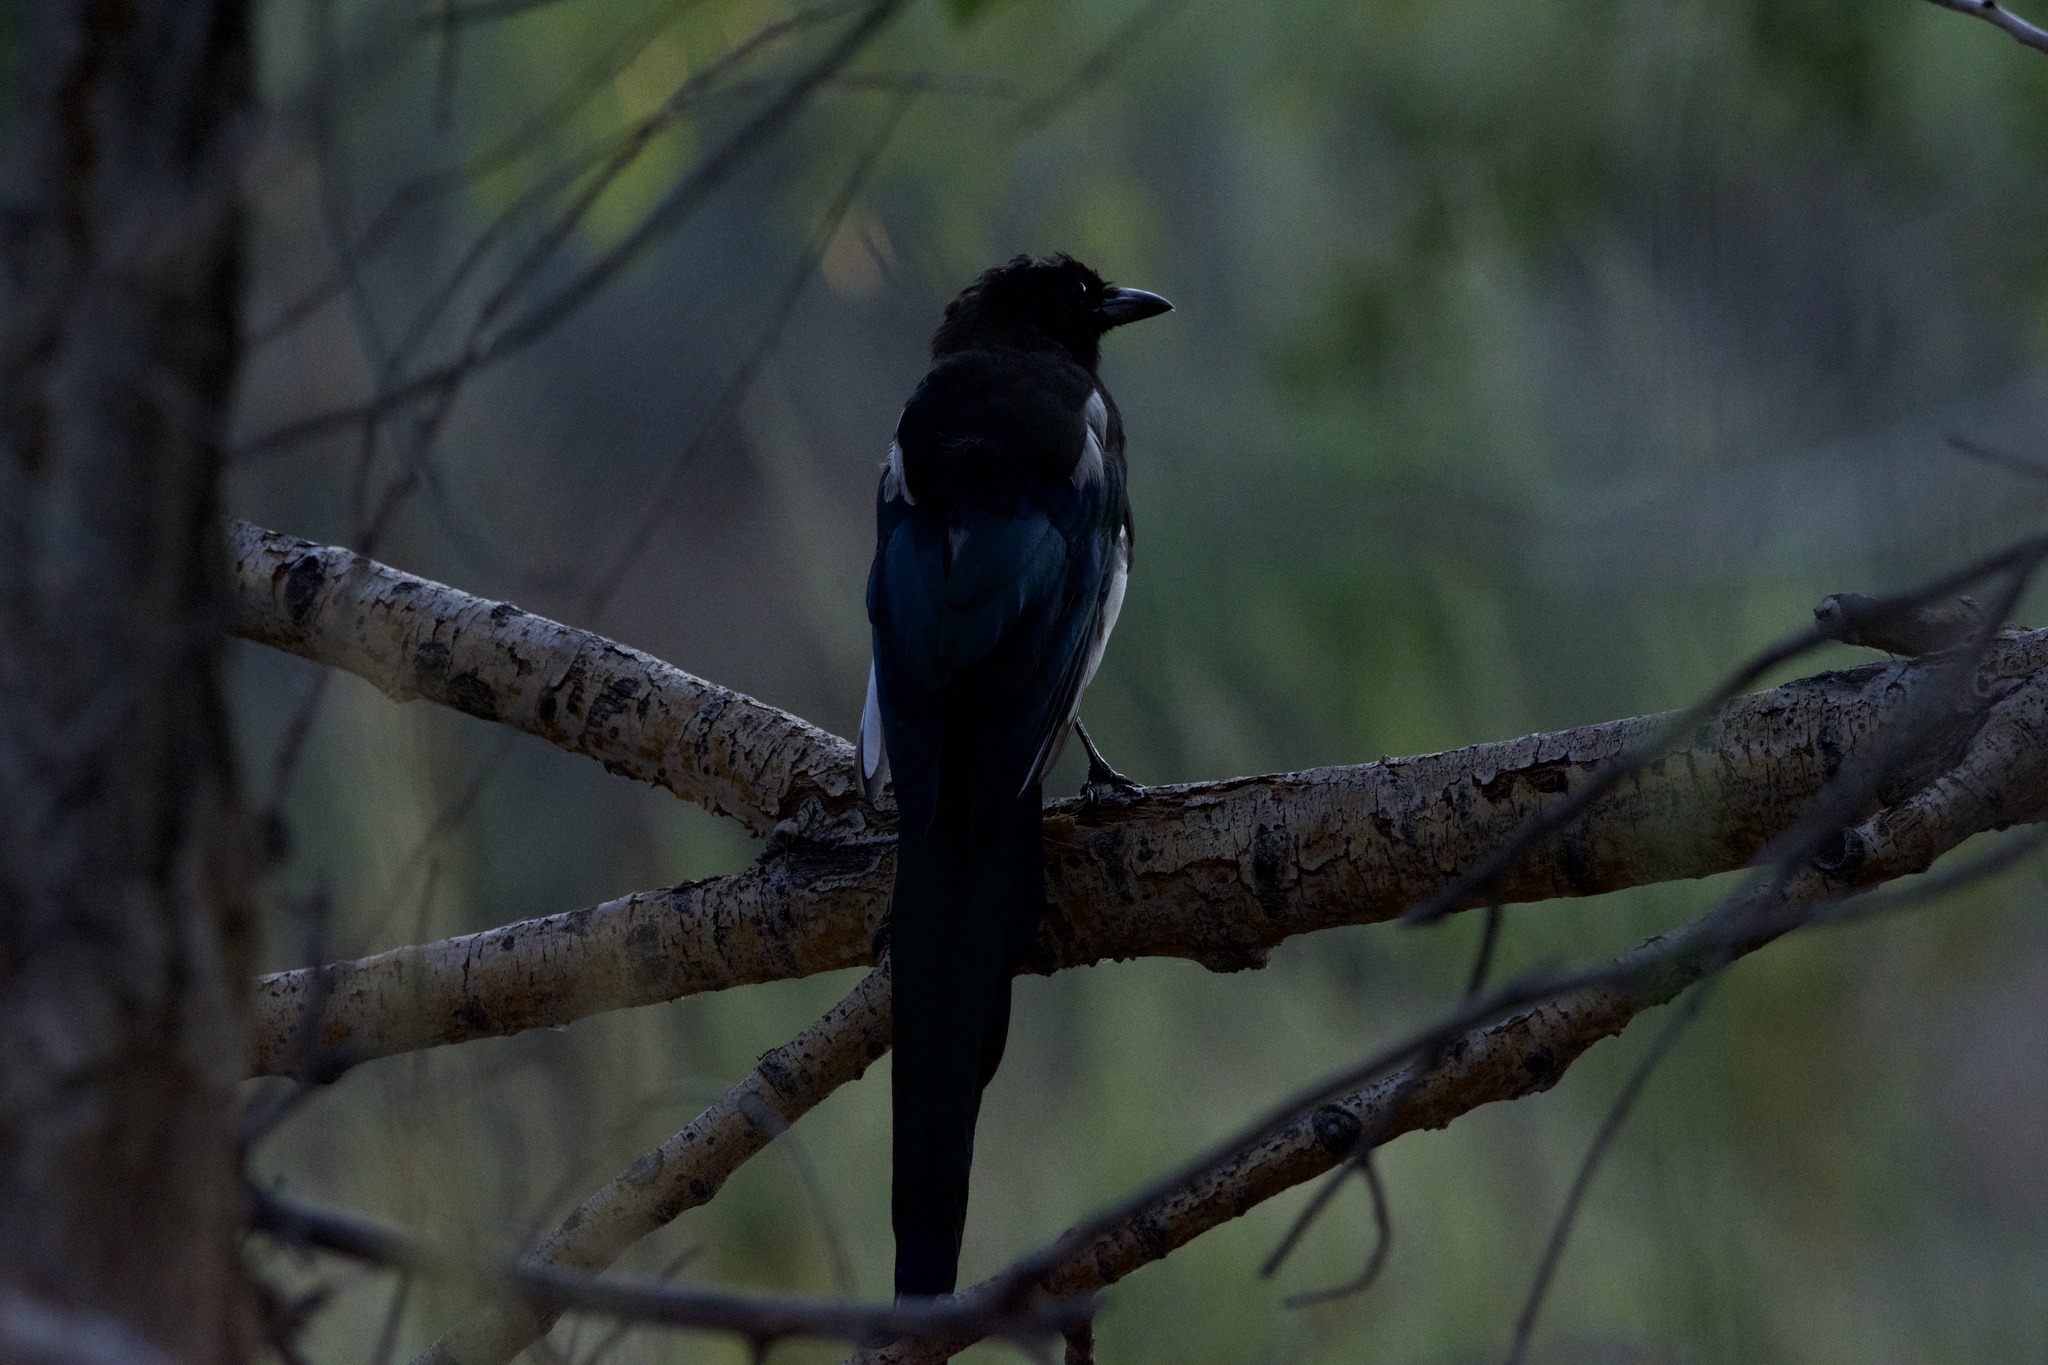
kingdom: Animalia
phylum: Chordata
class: Aves
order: Passeriformes
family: Corvidae
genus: Pica
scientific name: Pica hudsonia
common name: Black-billed magpie
